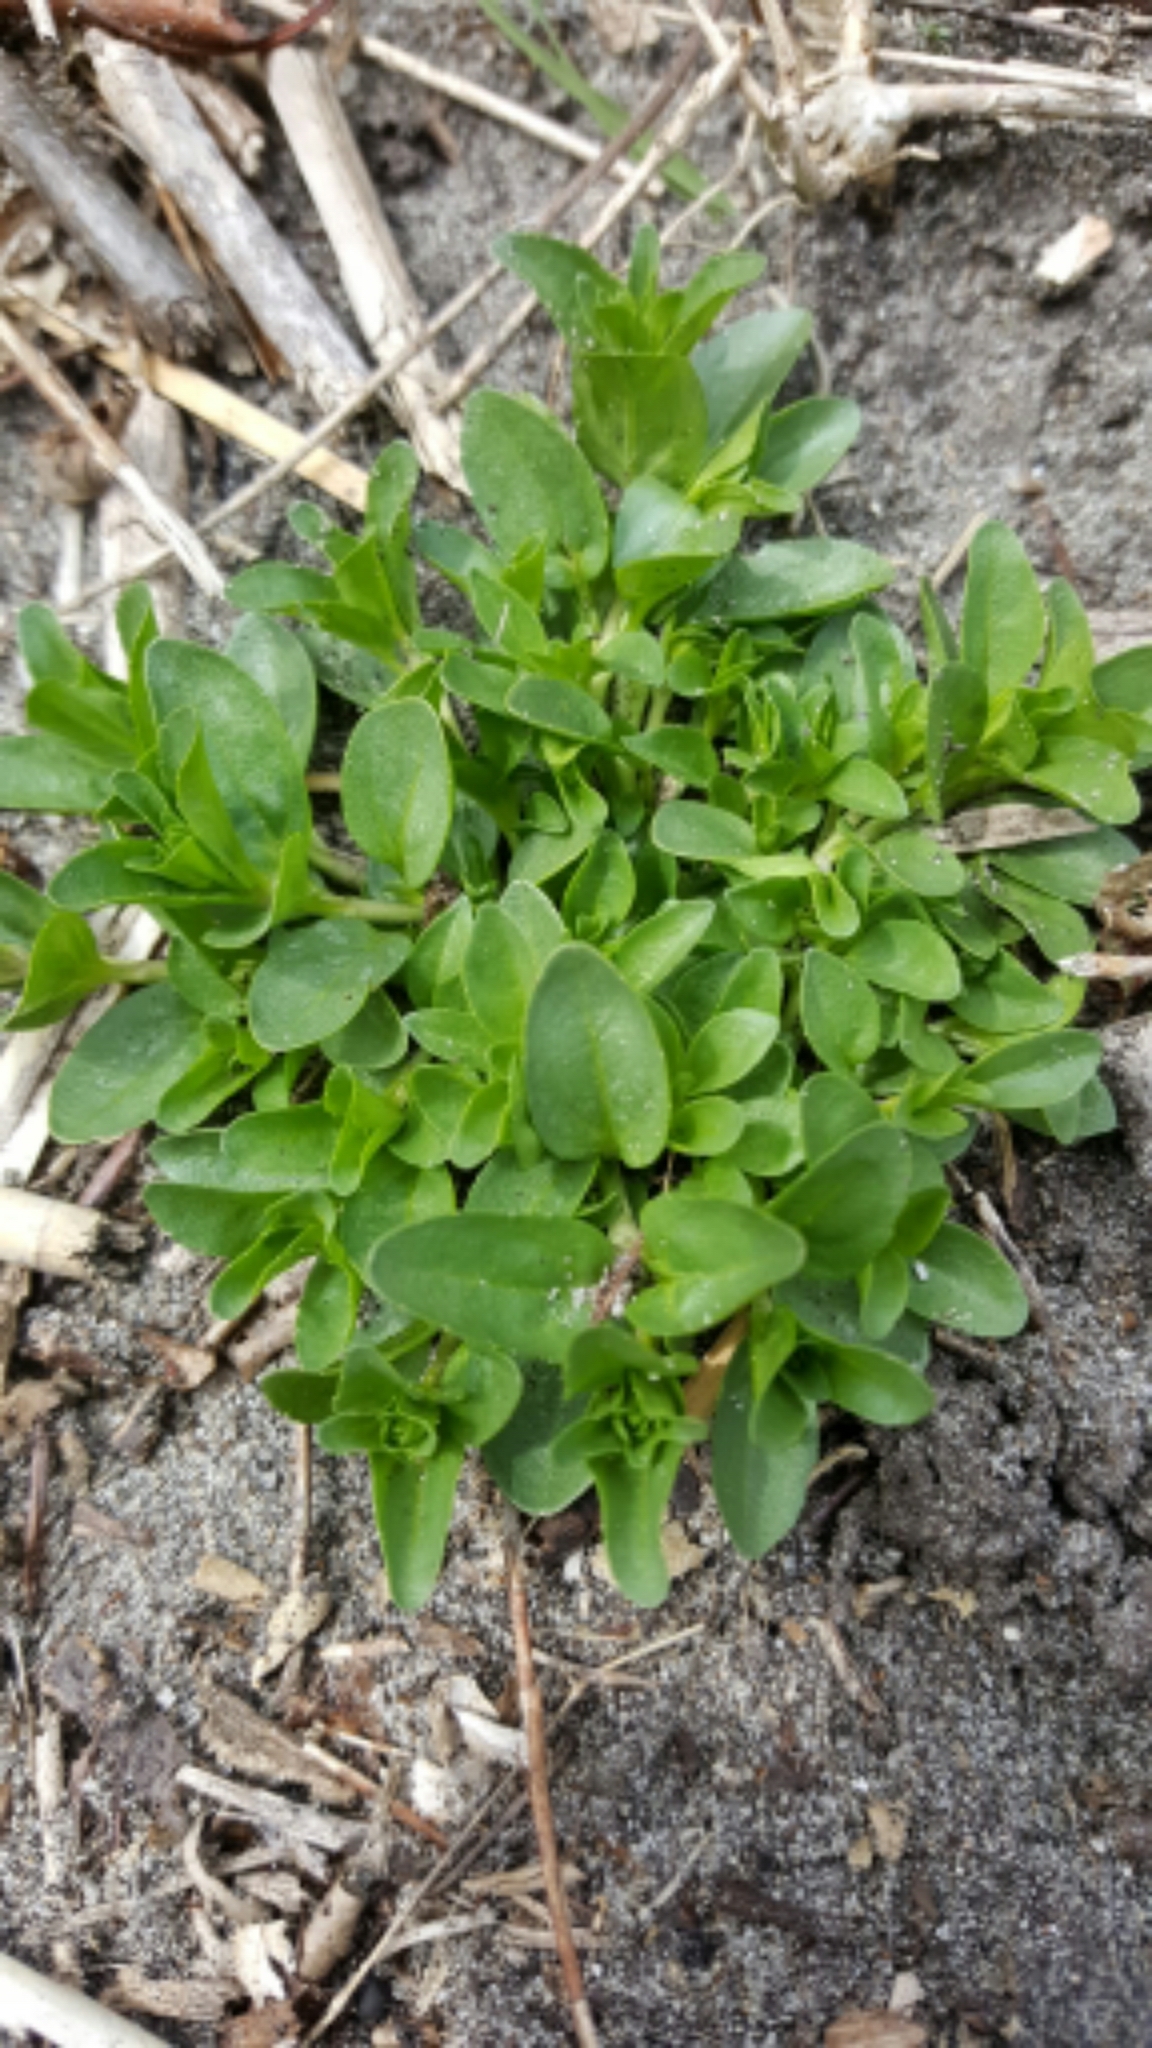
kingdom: Plantae
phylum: Tracheophyta
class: Magnoliopsida
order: Lamiales
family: Plantaginaceae
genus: Veronica
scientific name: Veronica serpyllifolia
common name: Thyme-leaved speedwell
